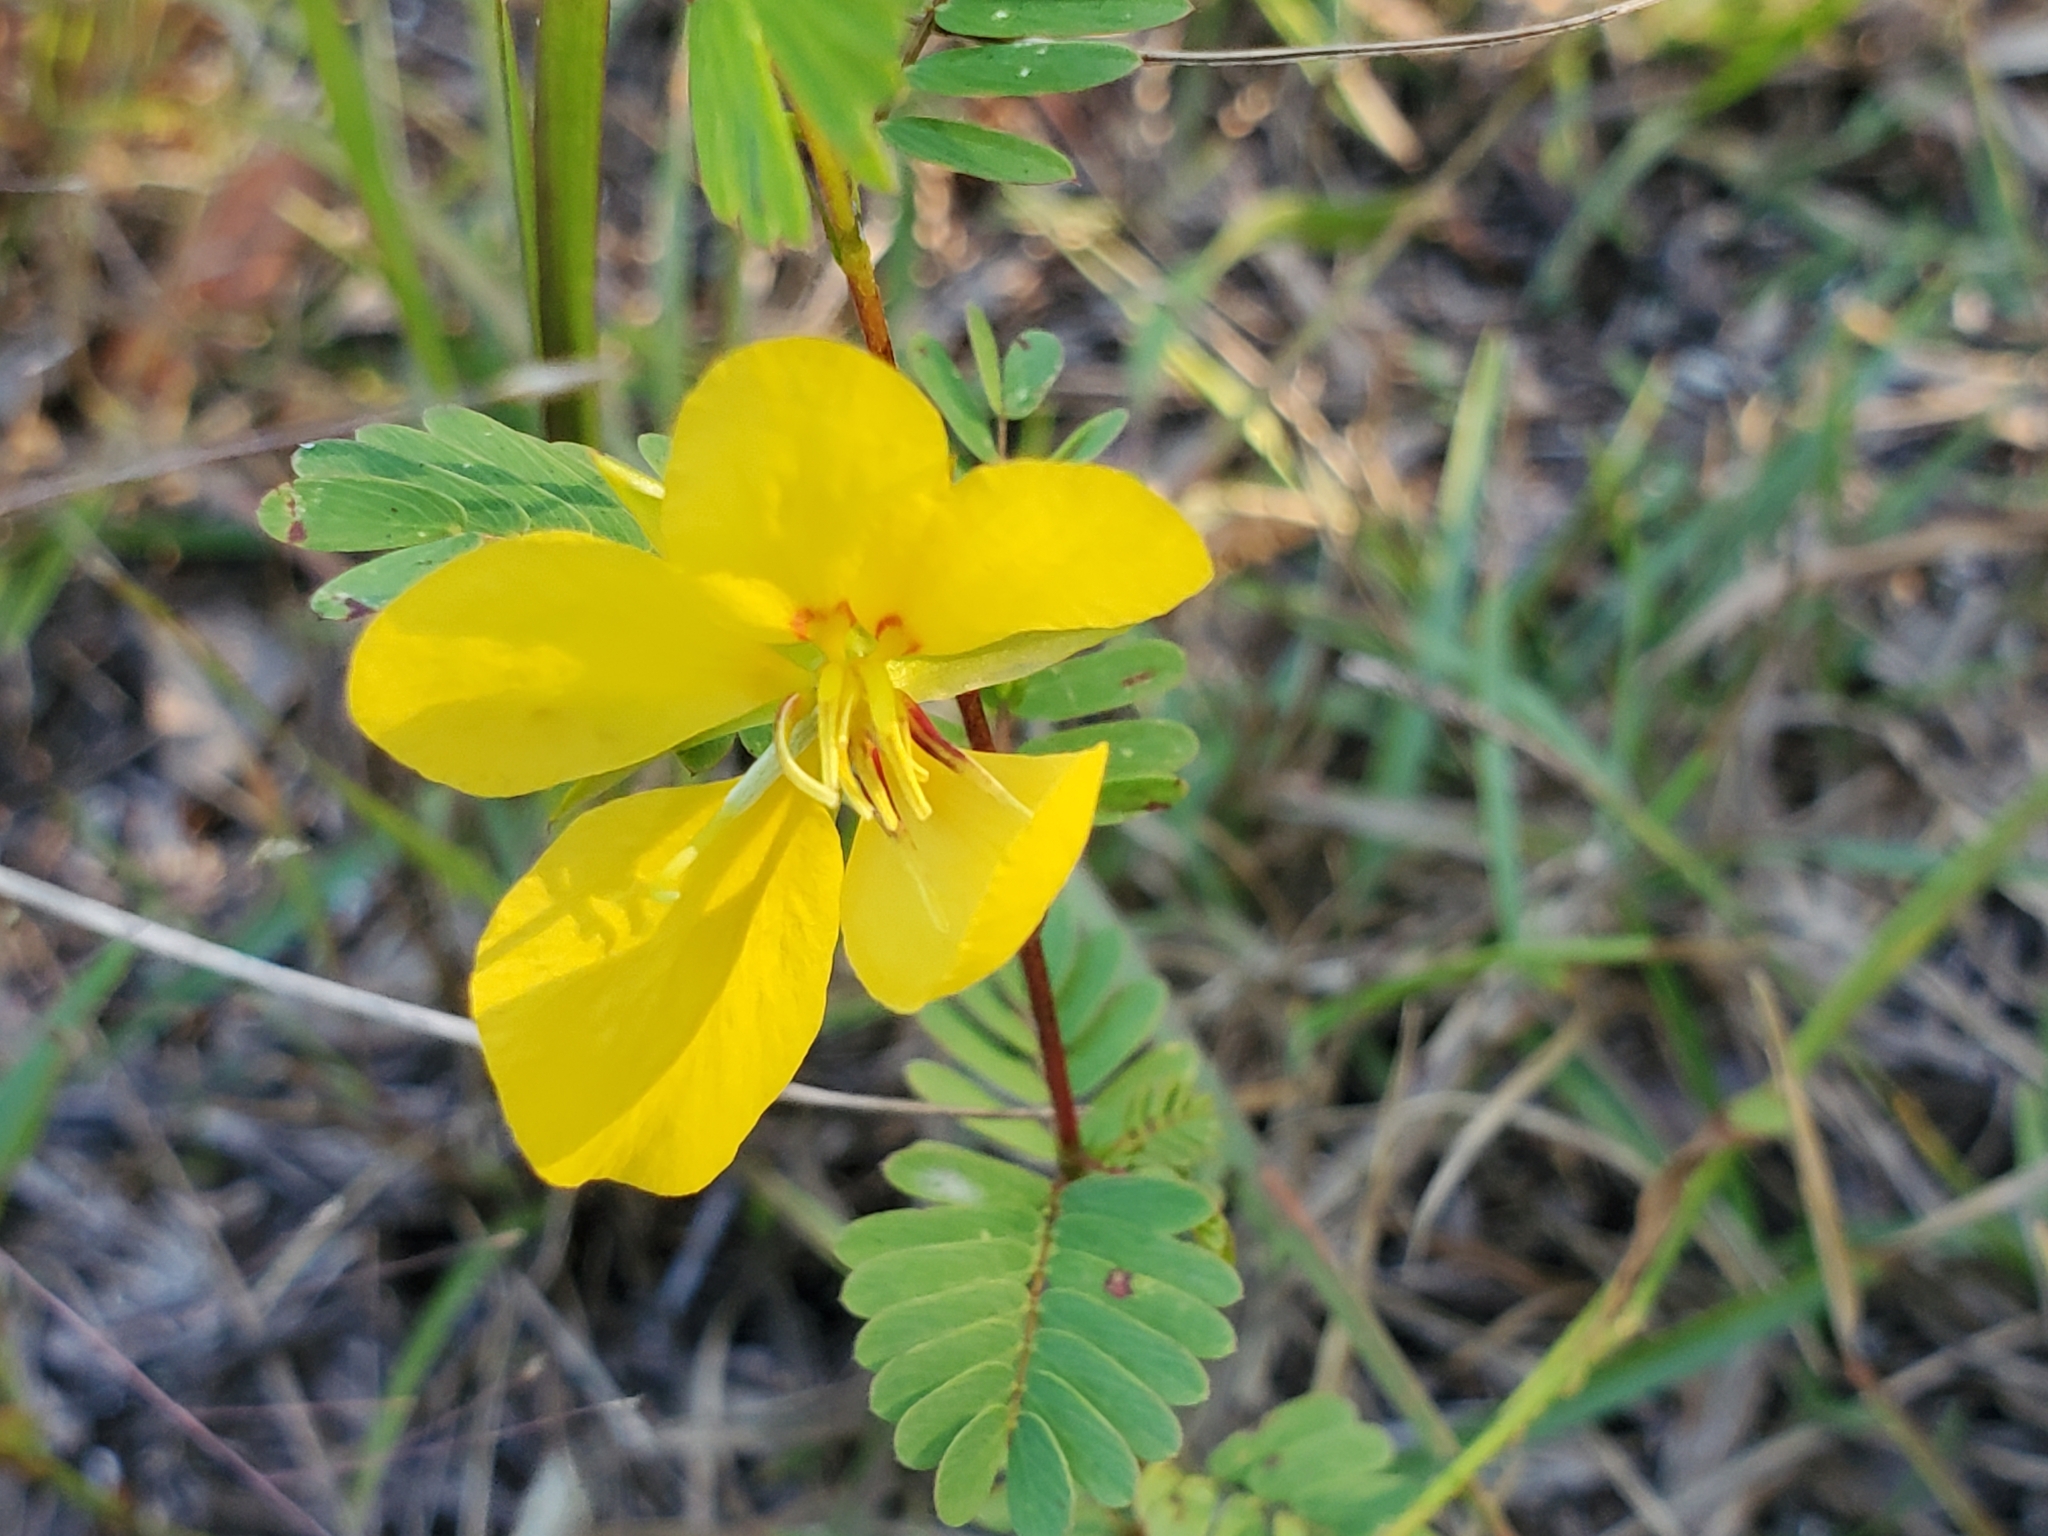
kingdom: Plantae
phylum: Tracheophyta
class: Magnoliopsida
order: Fabales
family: Fabaceae
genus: Chamaecrista
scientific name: Chamaecrista fasciculata
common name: Golden cassia
